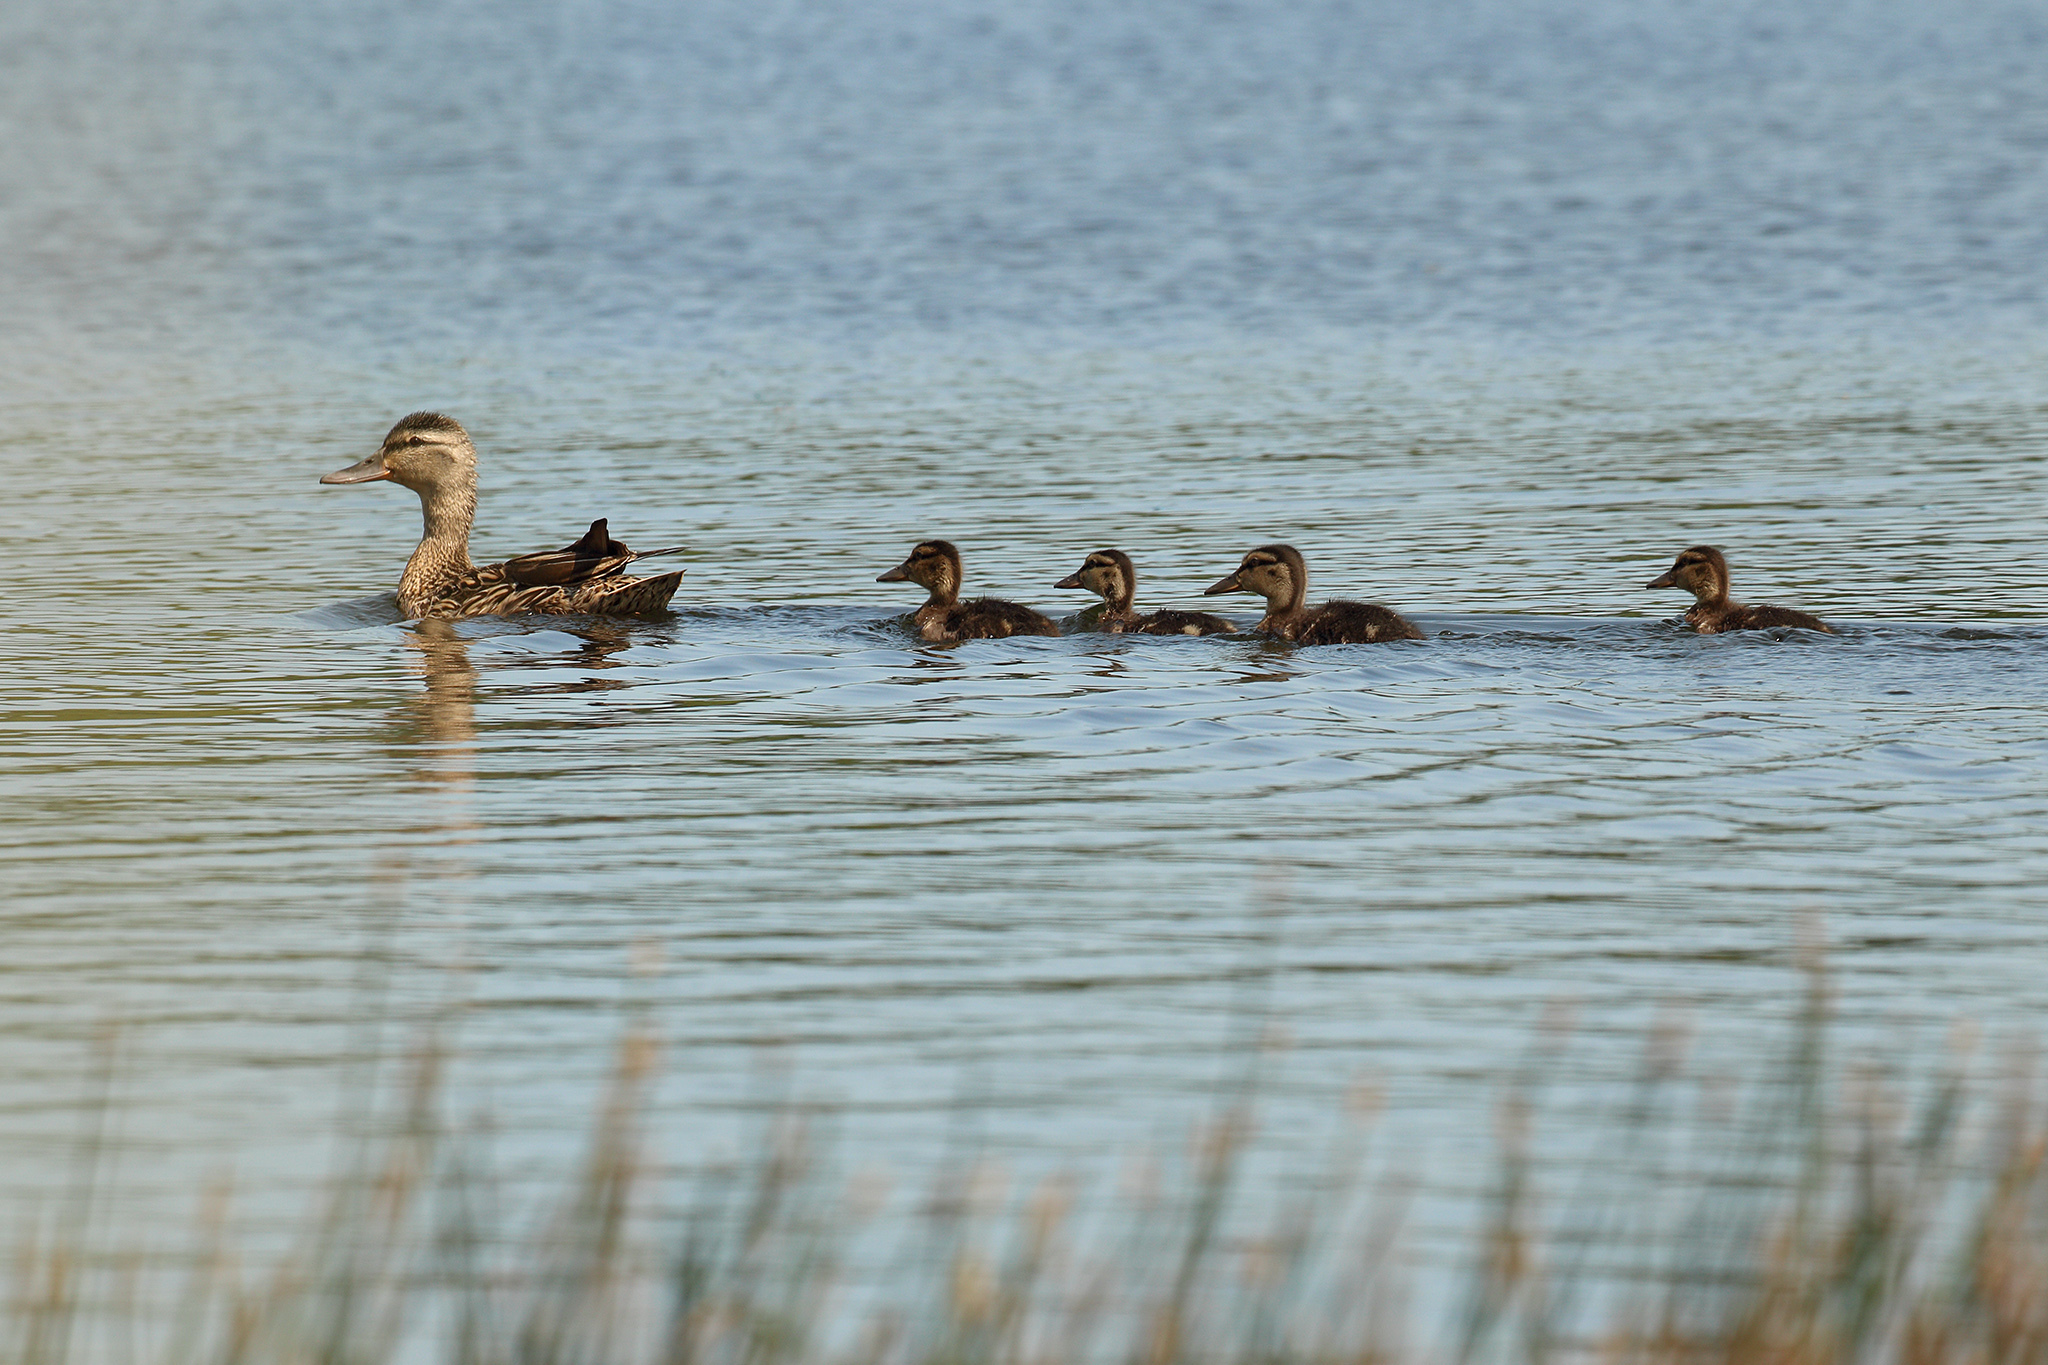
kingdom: Animalia
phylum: Chordata
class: Aves
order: Anseriformes
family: Anatidae
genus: Anas
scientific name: Anas platyrhynchos
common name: Mallard
